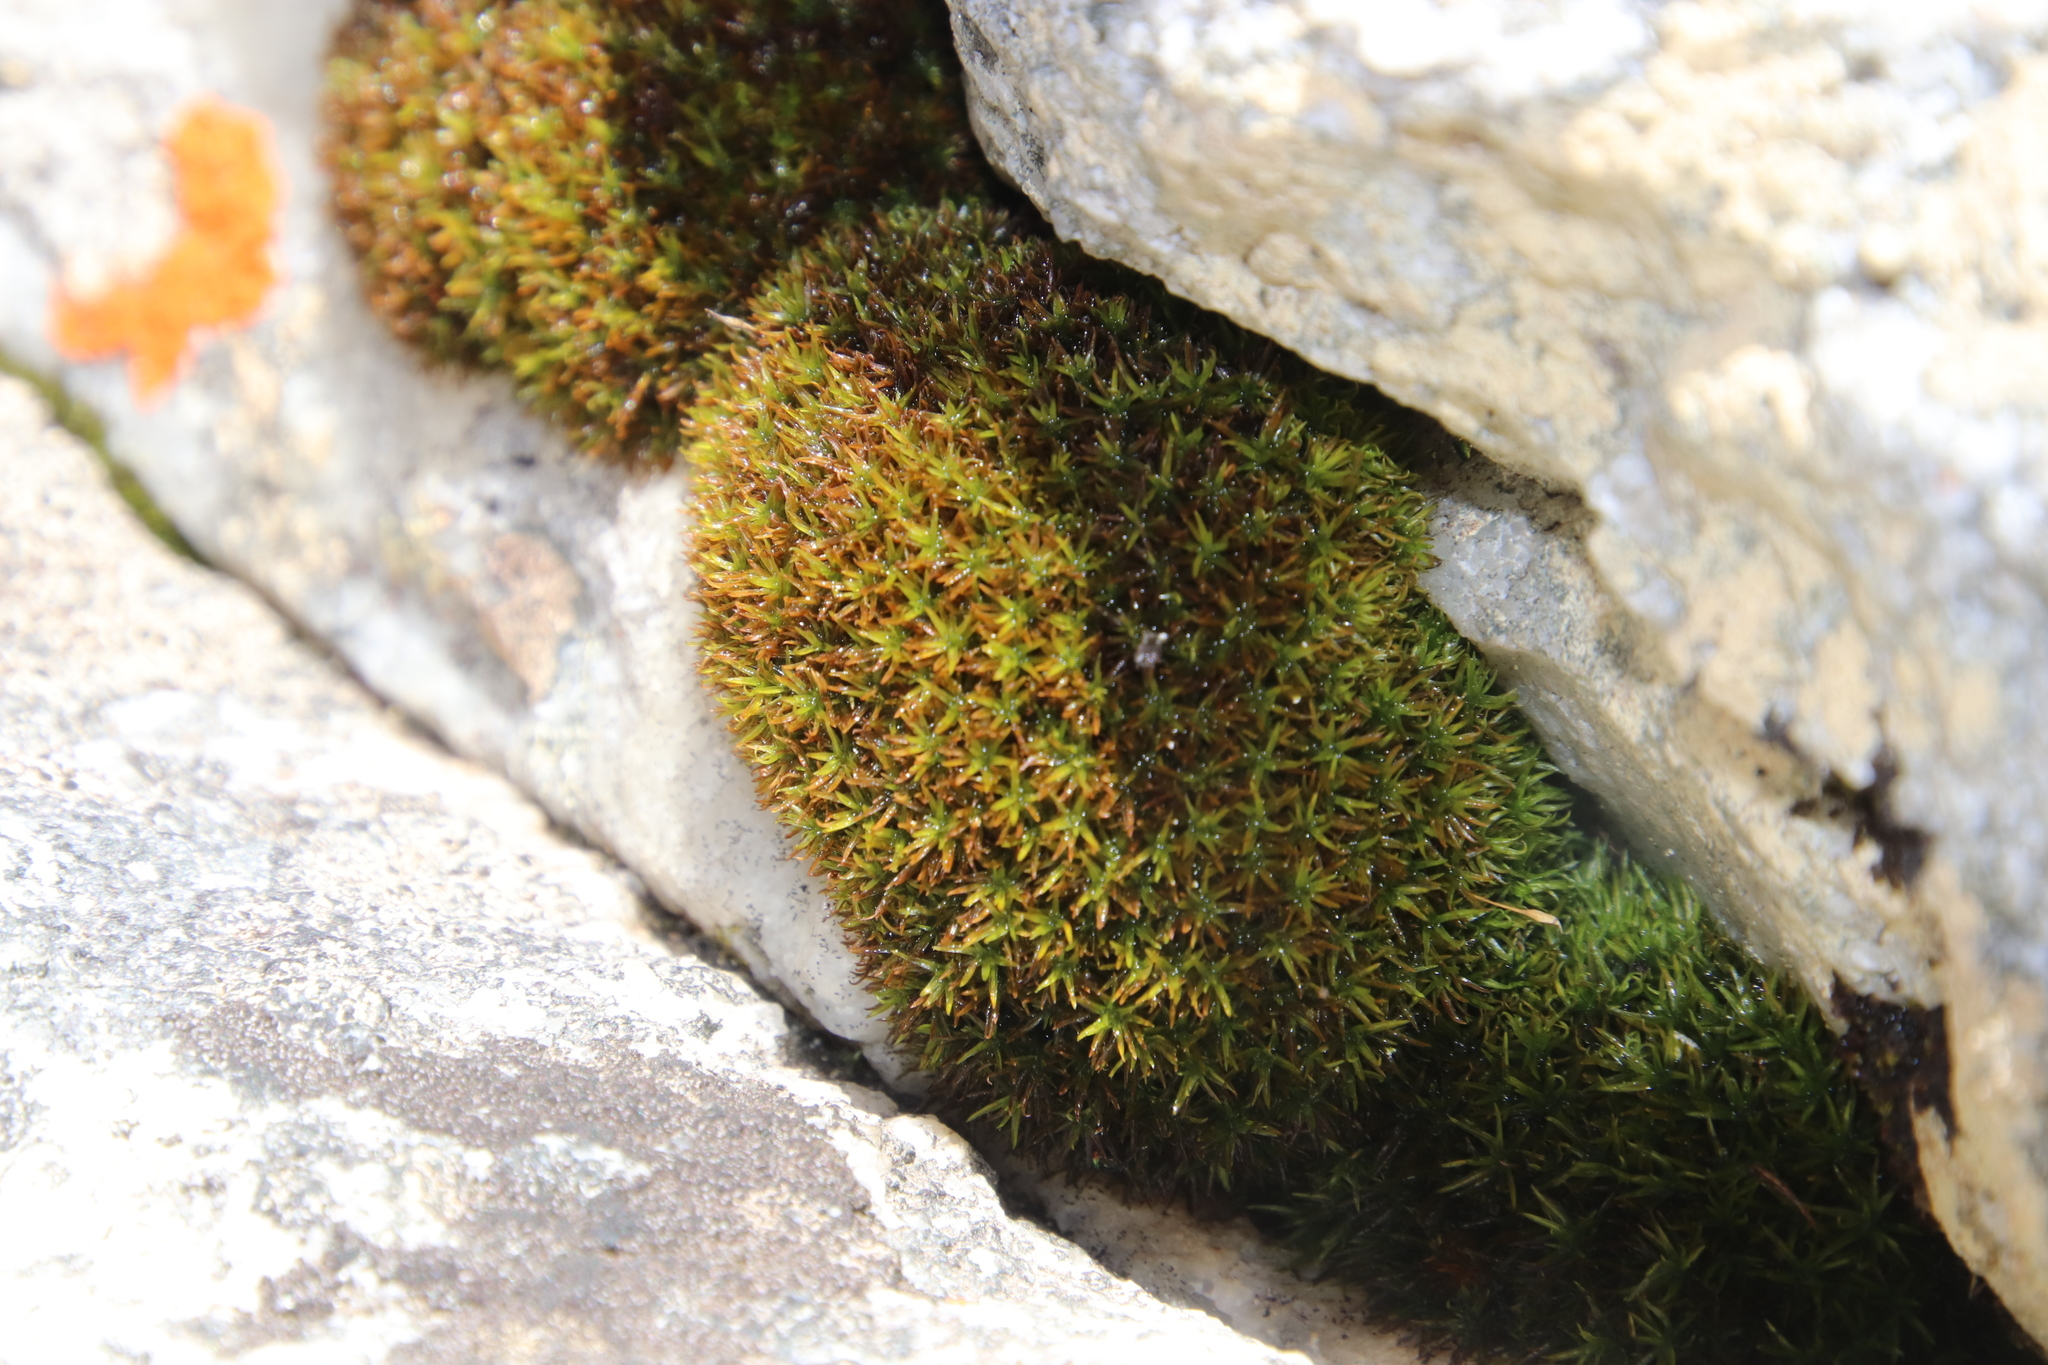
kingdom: Plantae
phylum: Bryophyta
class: Bryopsida
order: Pottiales
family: Pottiaceae
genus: Trichostomum
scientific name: Trichostomum brachydontium
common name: Variable crisp-moss
